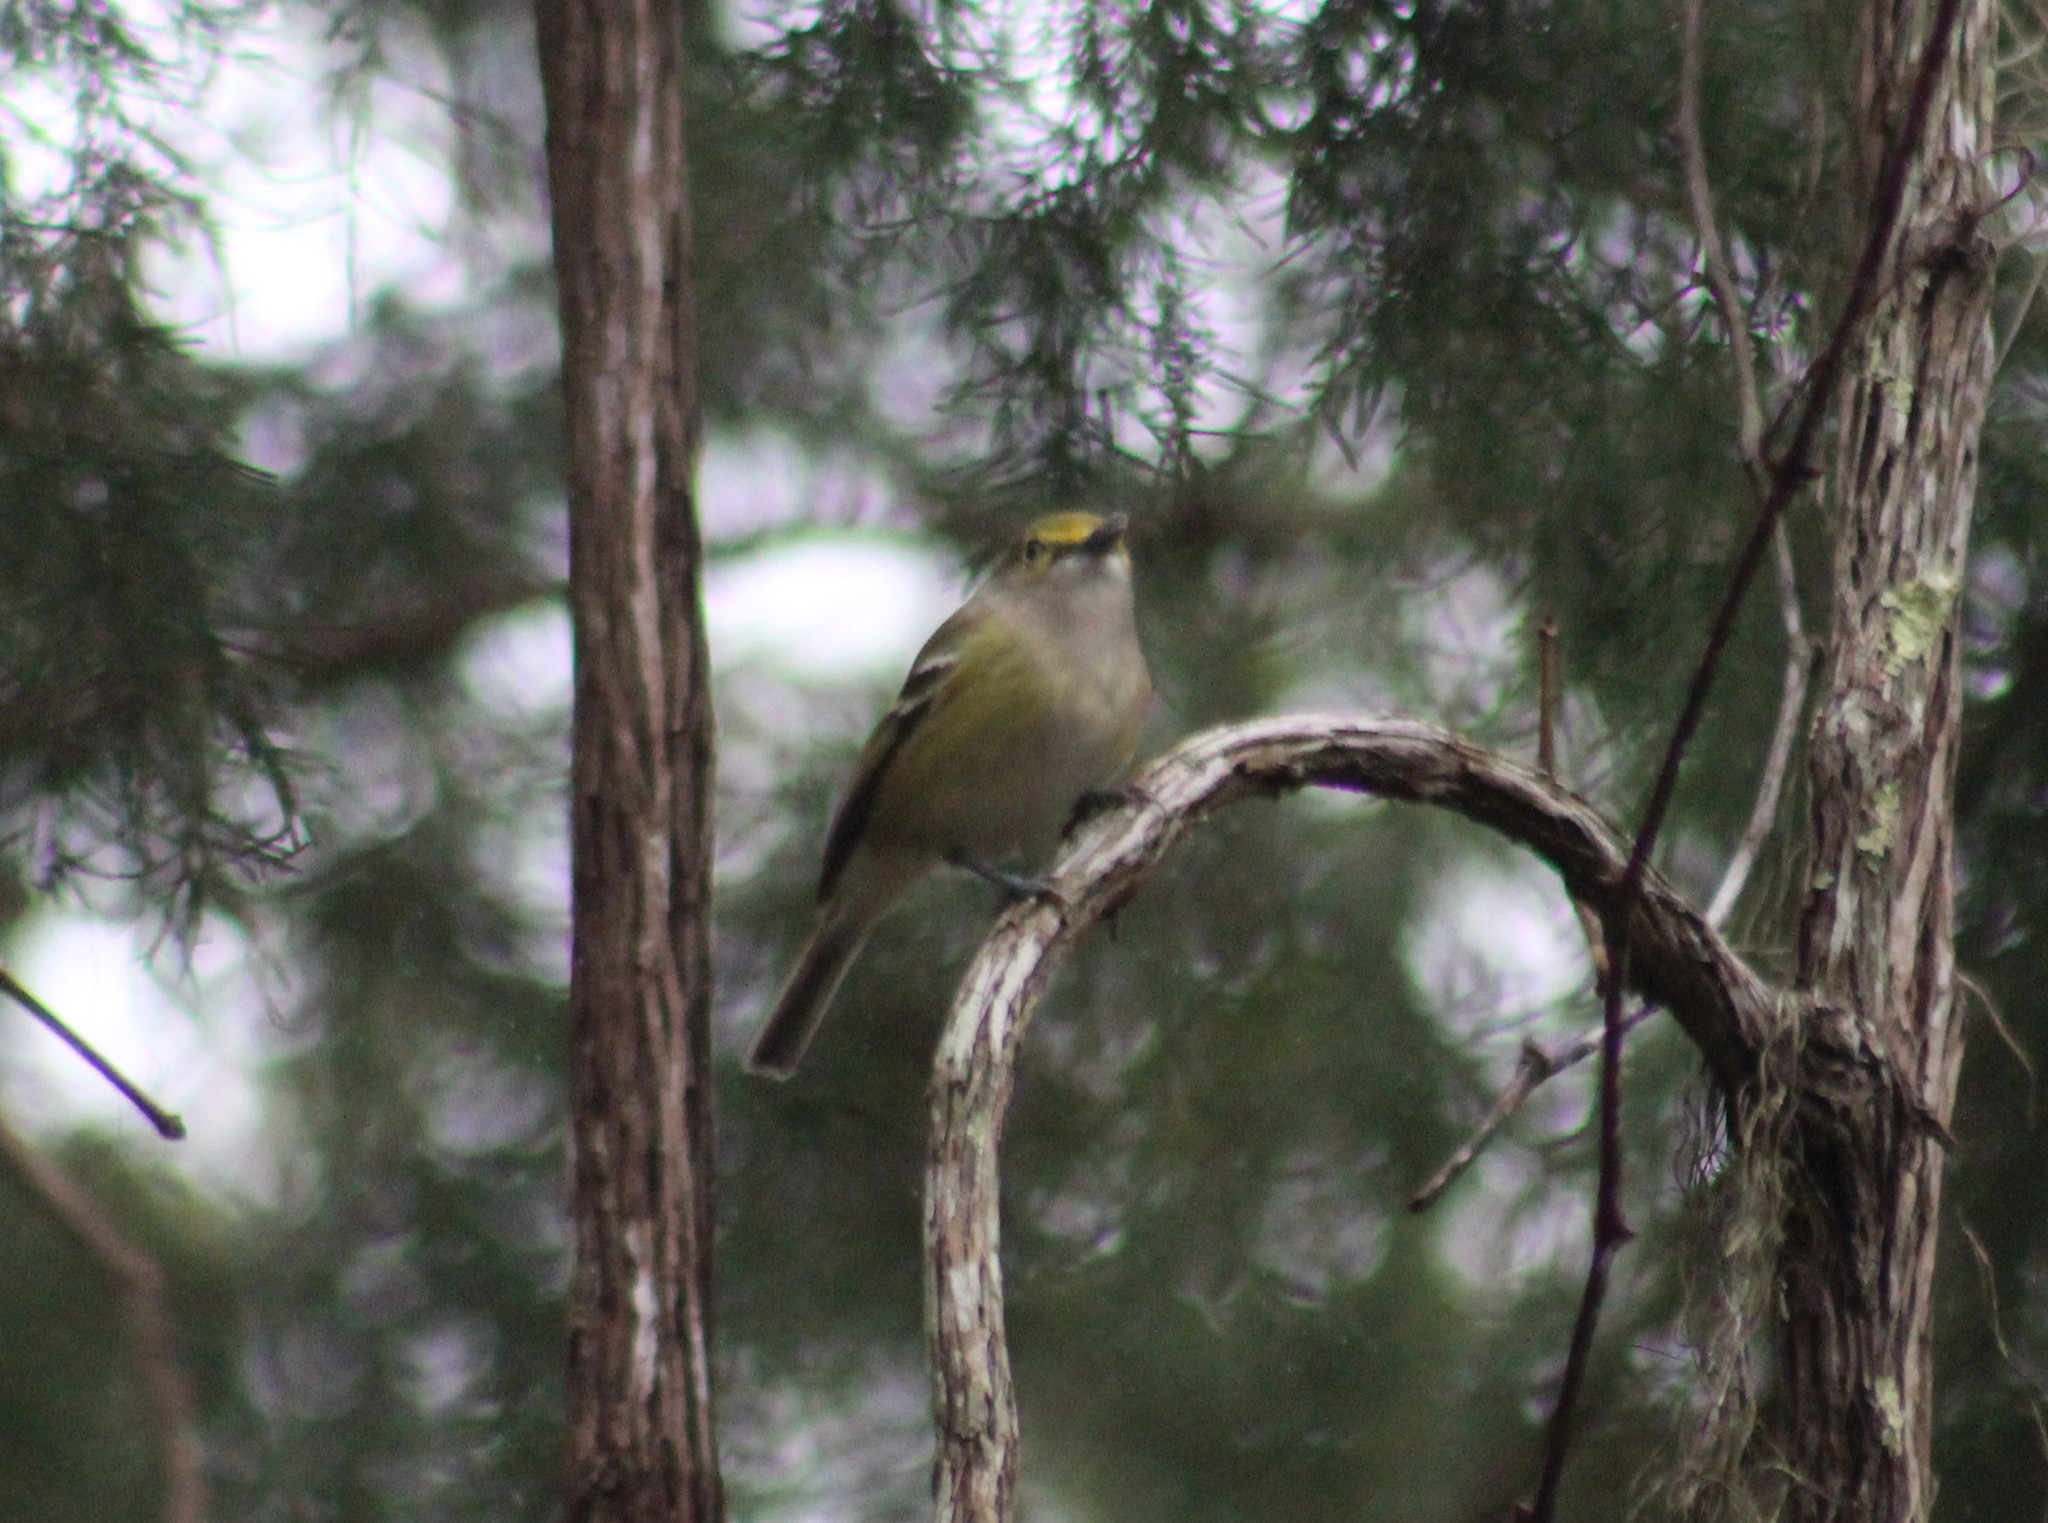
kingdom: Animalia
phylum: Chordata
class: Aves
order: Passeriformes
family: Vireonidae
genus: Vireo
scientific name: Vireo griseus
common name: White-eyed vireo
